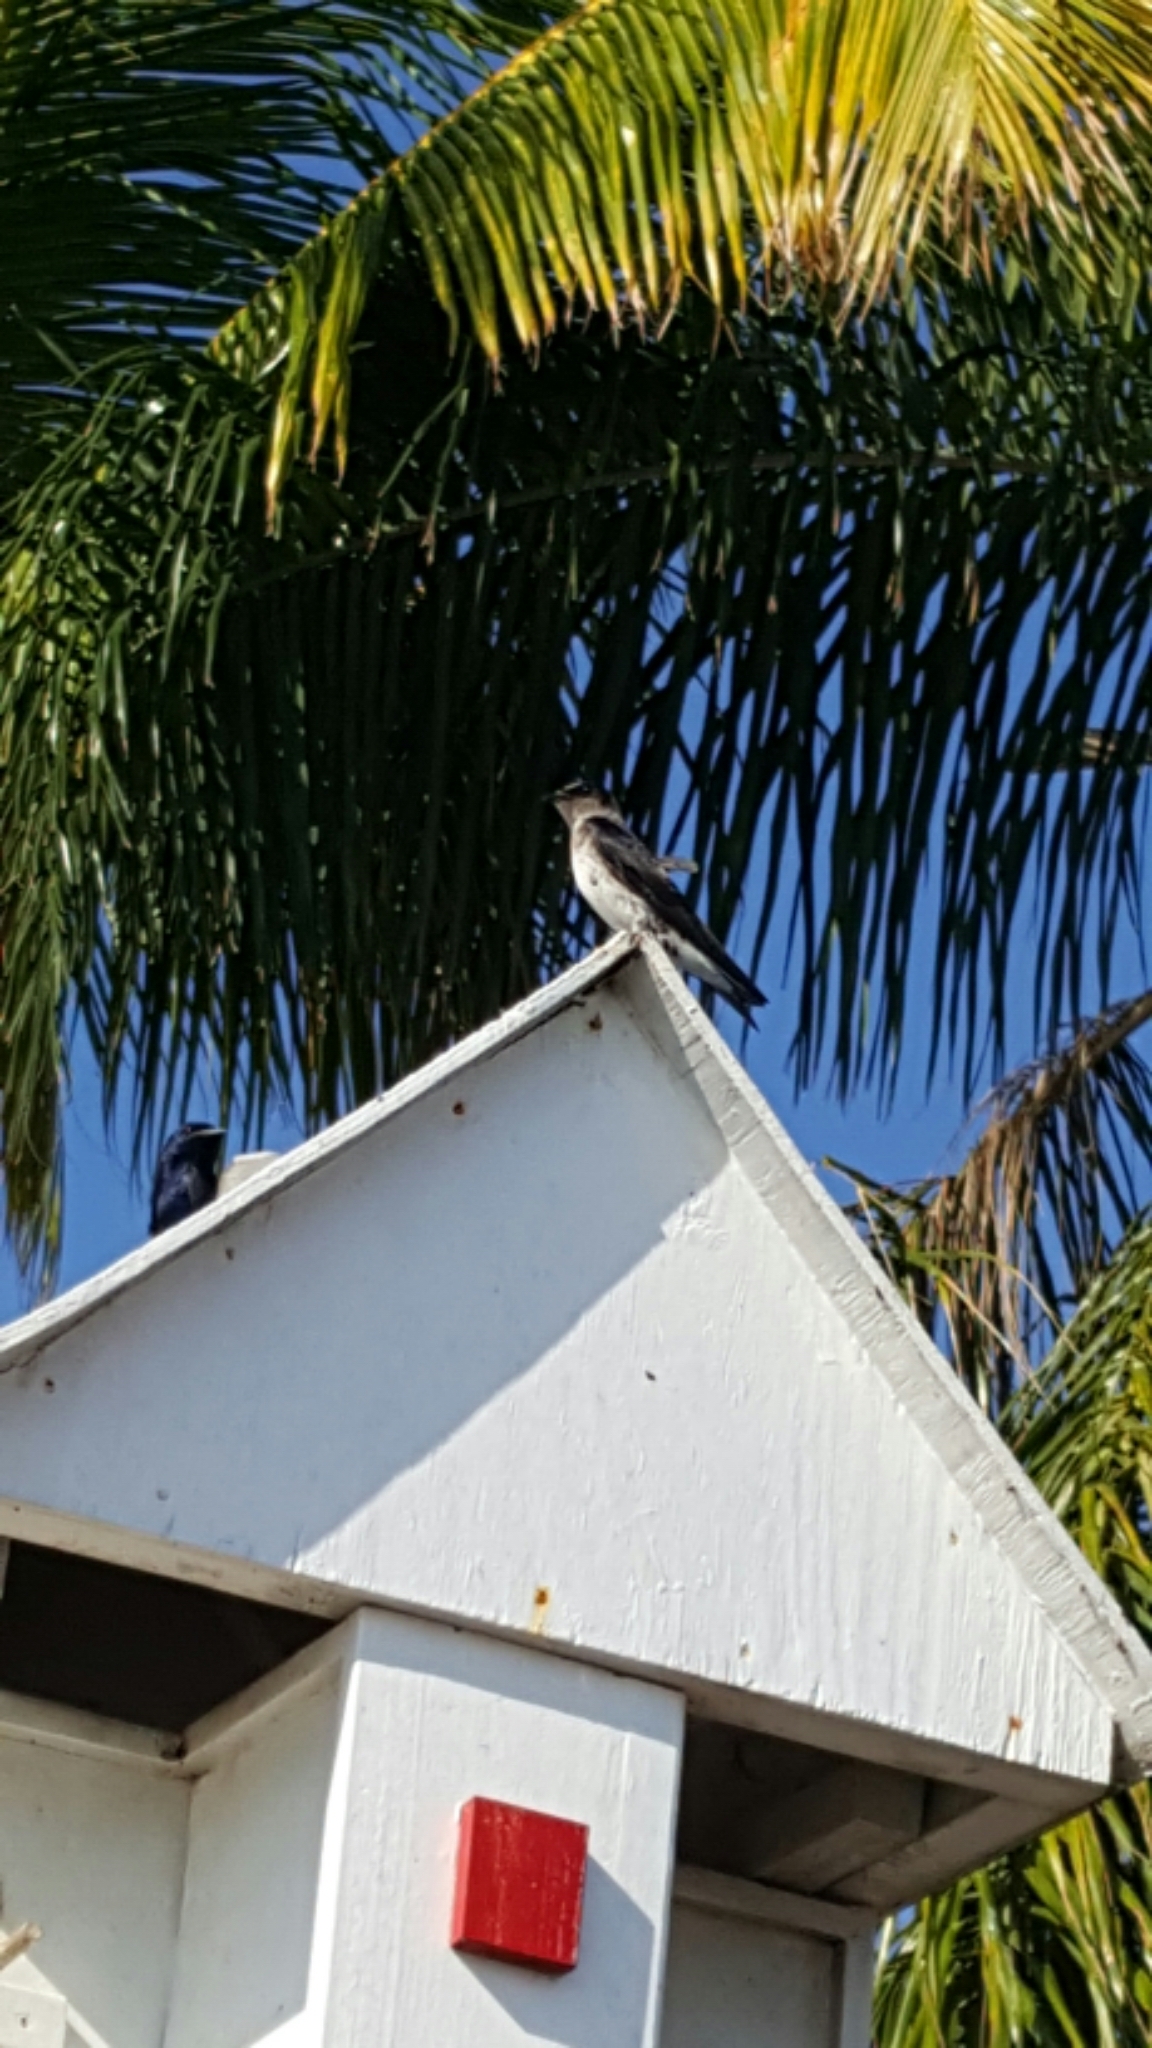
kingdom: Animalia
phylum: Chordata
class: Aves
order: Passeriformes
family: Hirundinidae
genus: Progne
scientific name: Progne subis
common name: Purple martin
